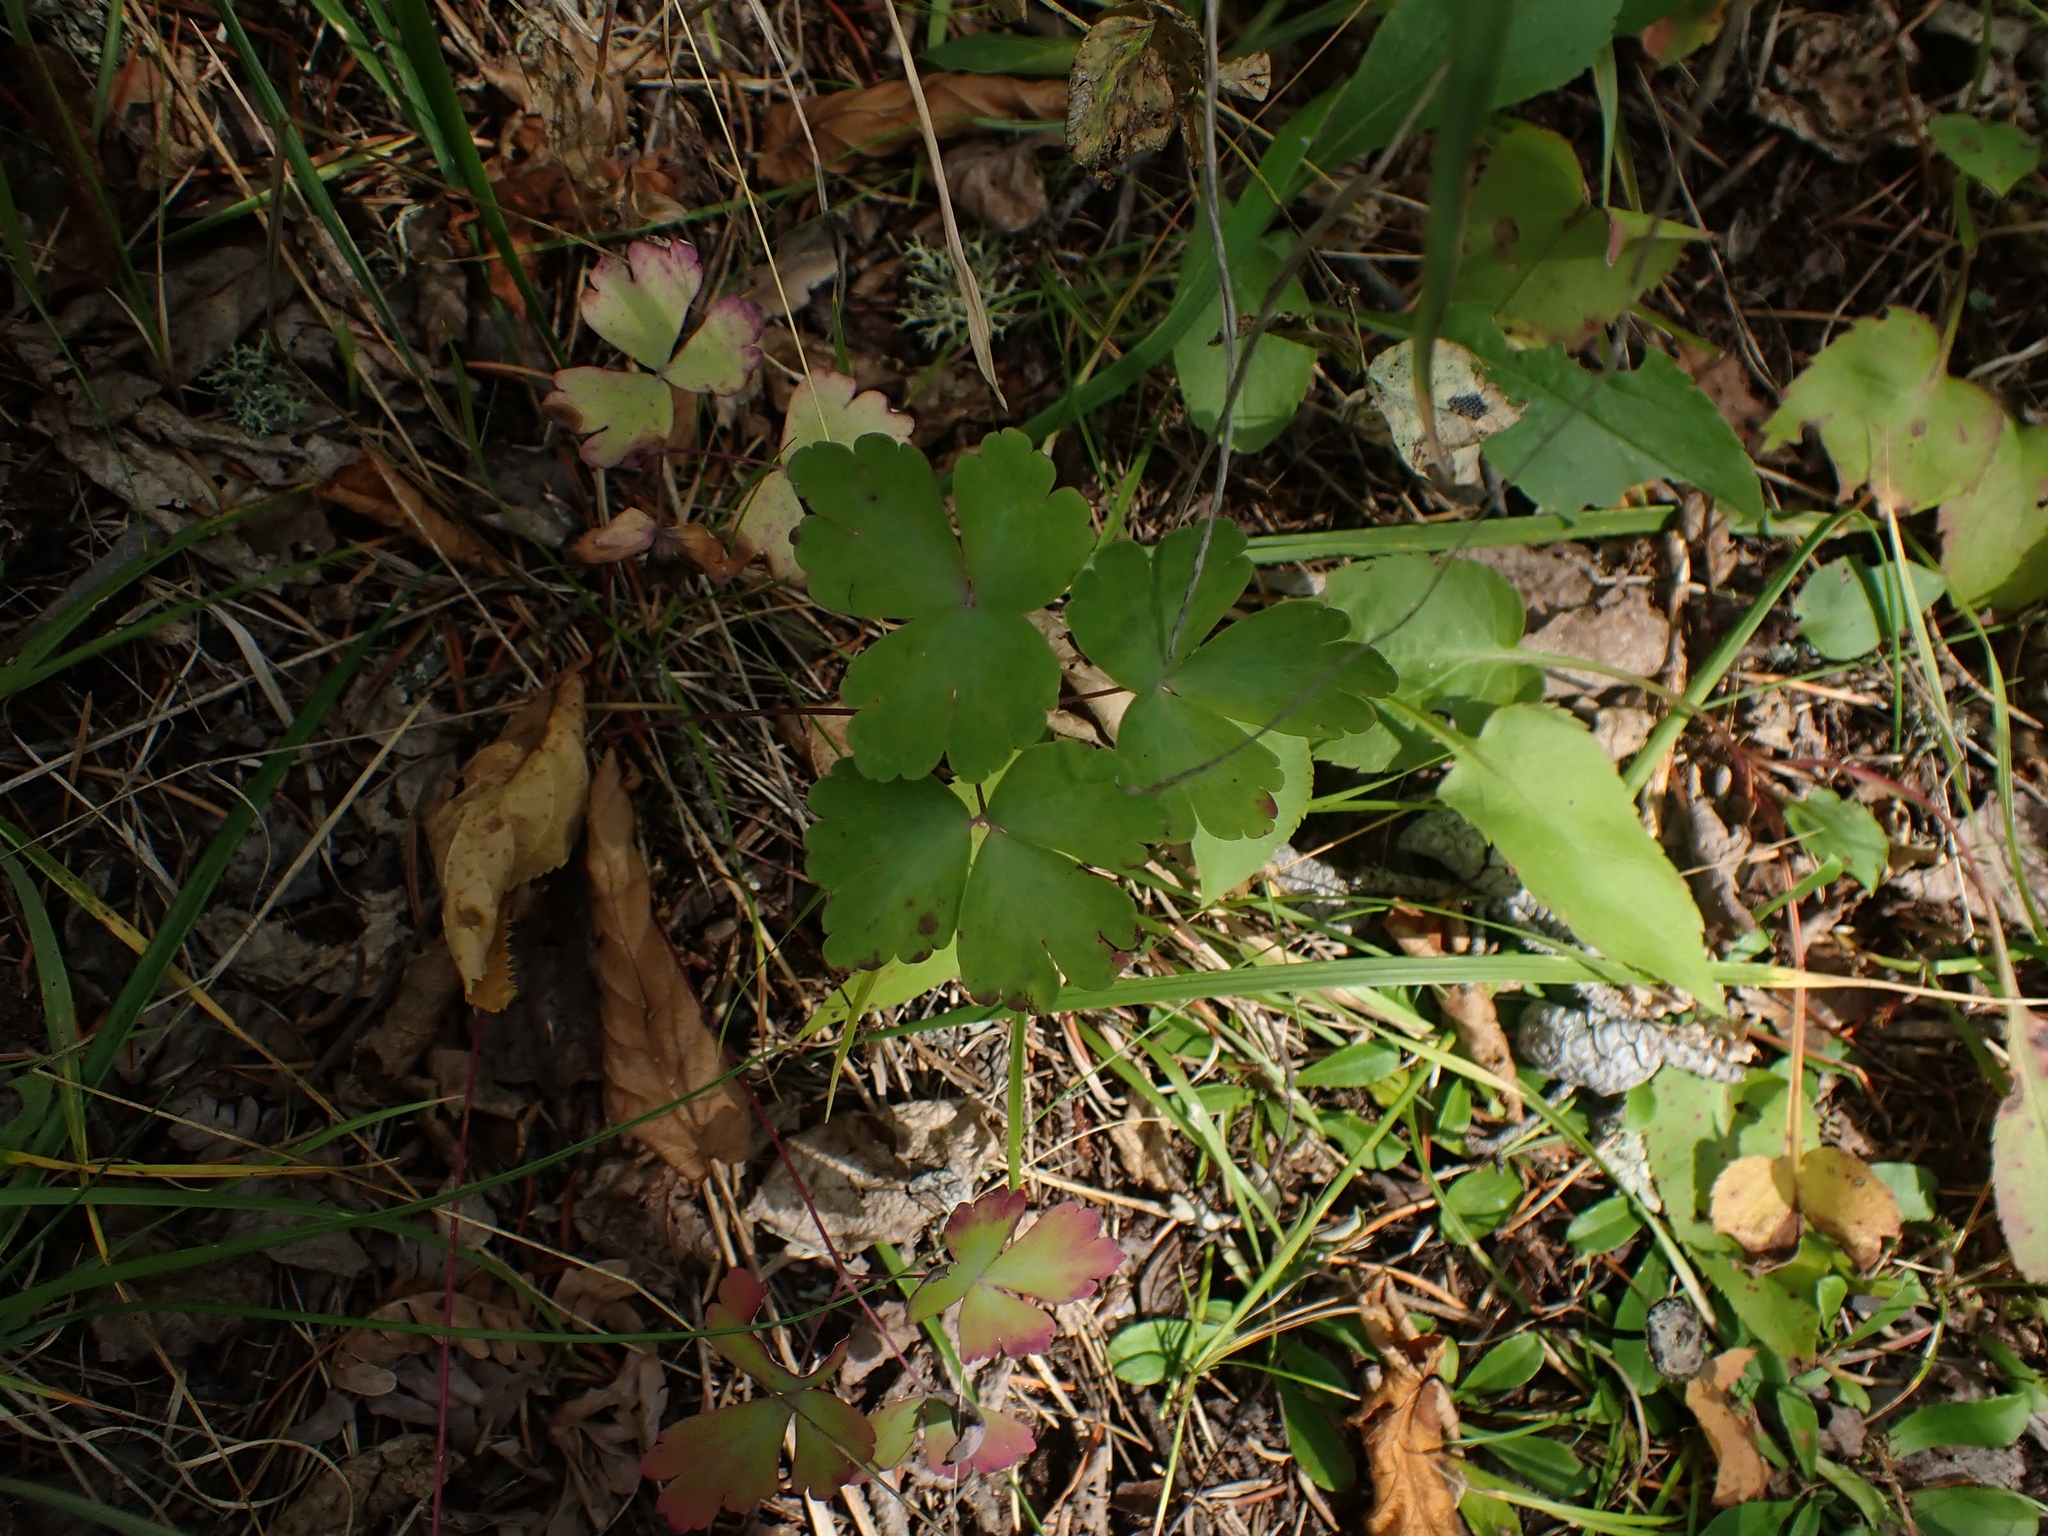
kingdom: Plantae
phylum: Tracheophyta
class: Magnoliopsida
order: Ranunculales
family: Ranunculaceae
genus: Aquilegia
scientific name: Aquilegia canadensis
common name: American columbine
